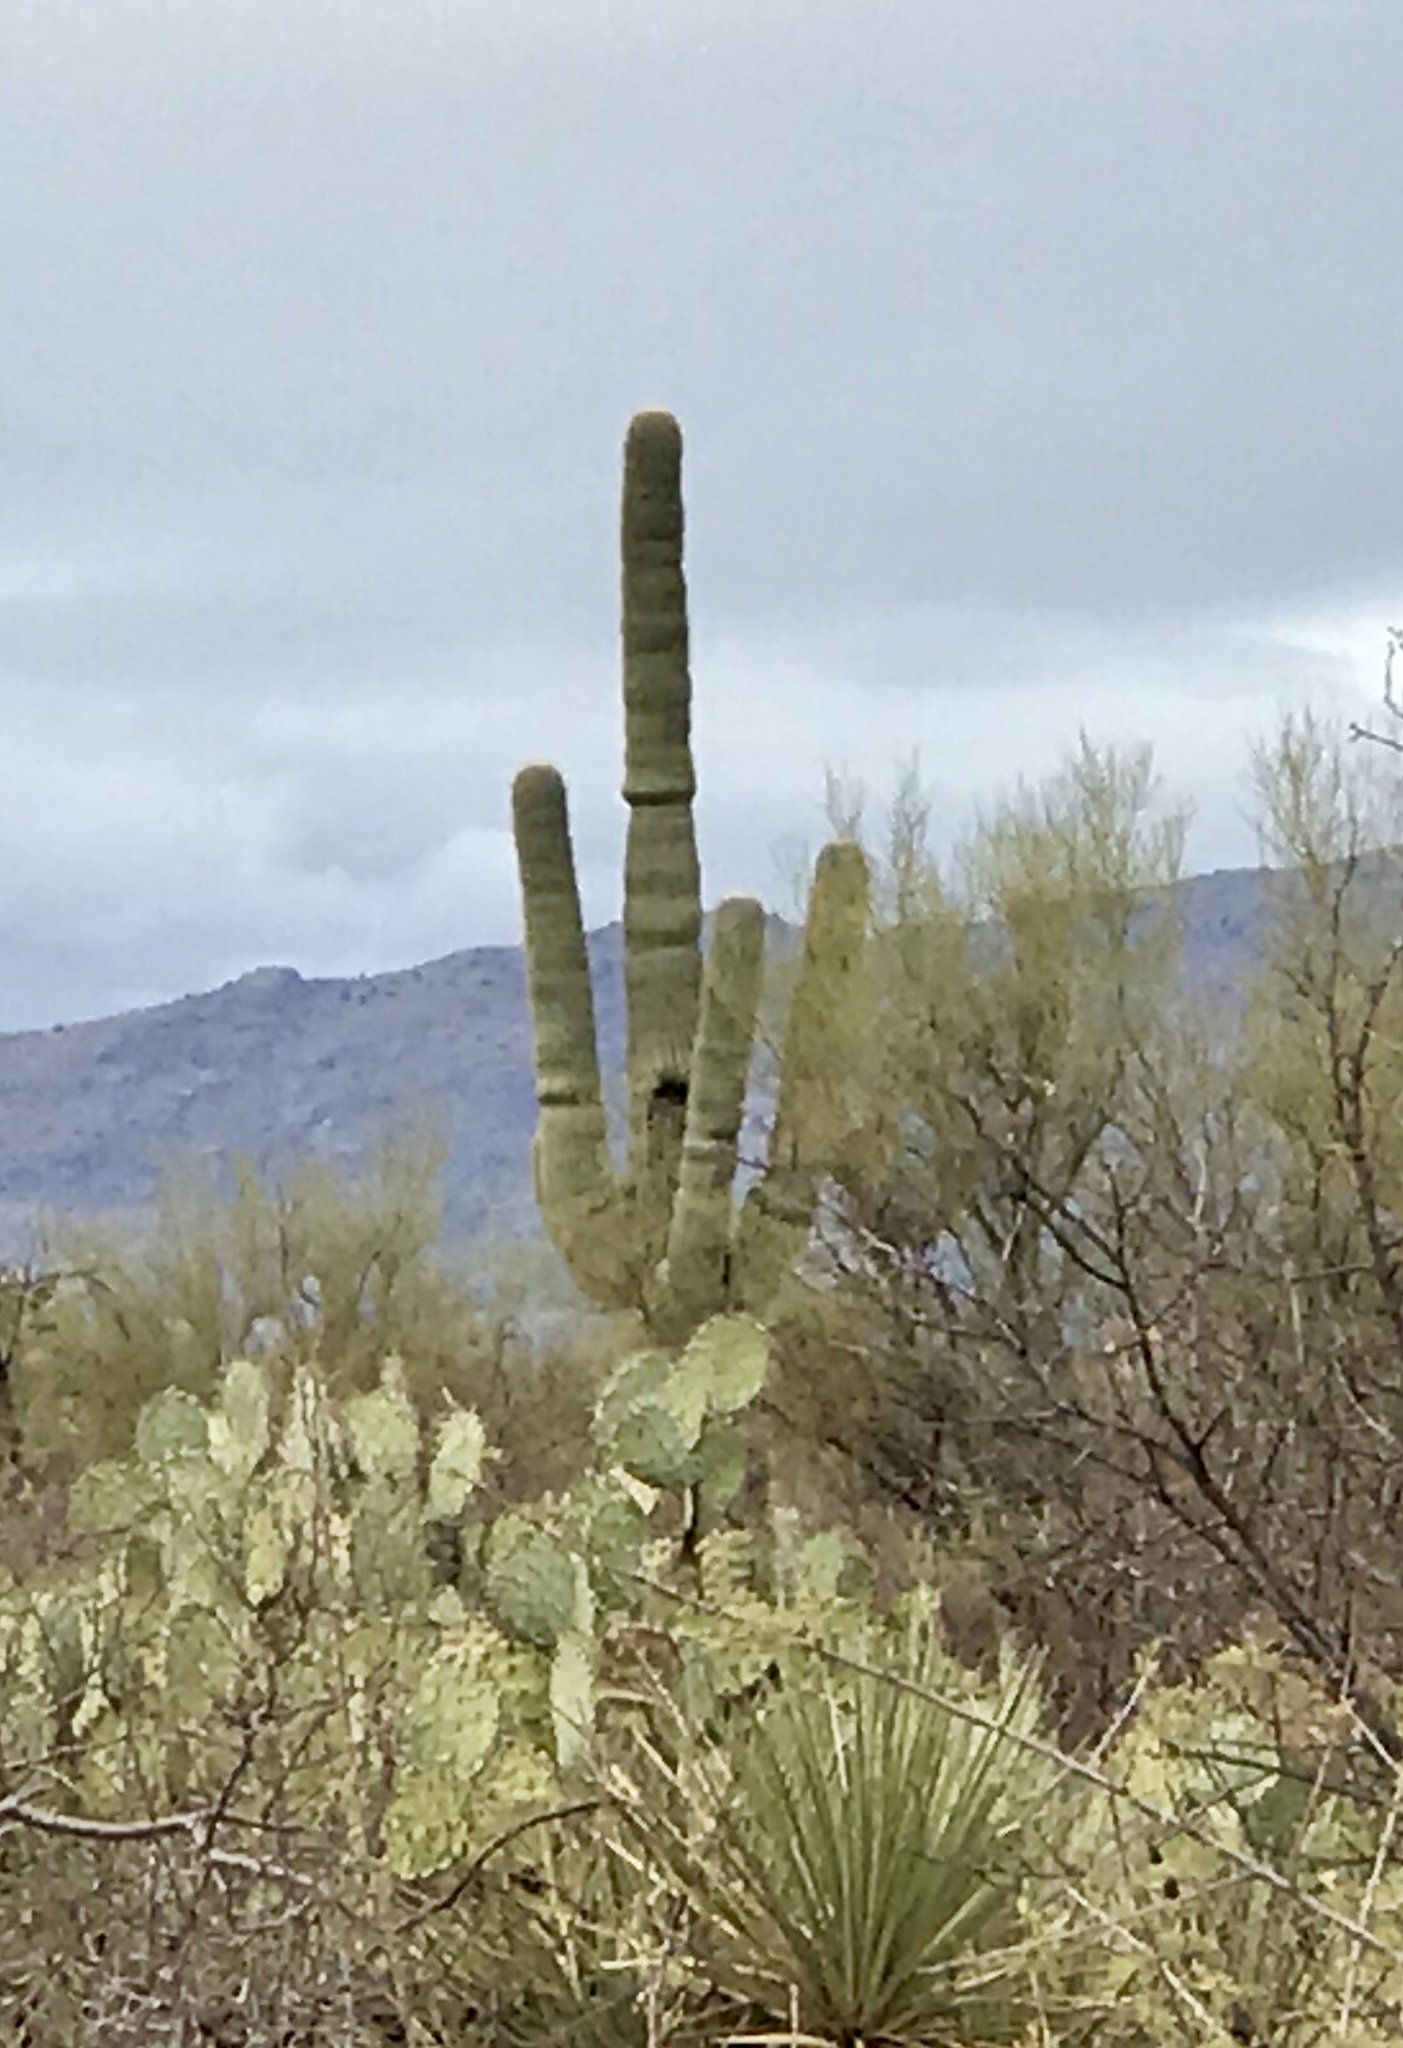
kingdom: Plantae
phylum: Tracheophyta
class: Magnoliopsida
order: Caryophyllales
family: Cactaceae
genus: Carnegiea
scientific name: Carnegiea gigantea
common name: Saguaro
